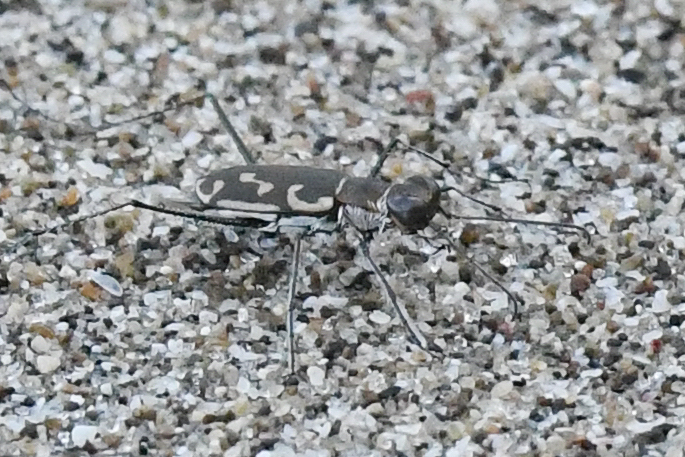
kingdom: Animalia
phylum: Arthropoda
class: Insecta
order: Coleoptera
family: Carabidae
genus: Opilidia
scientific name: Opilidia macrocnema
